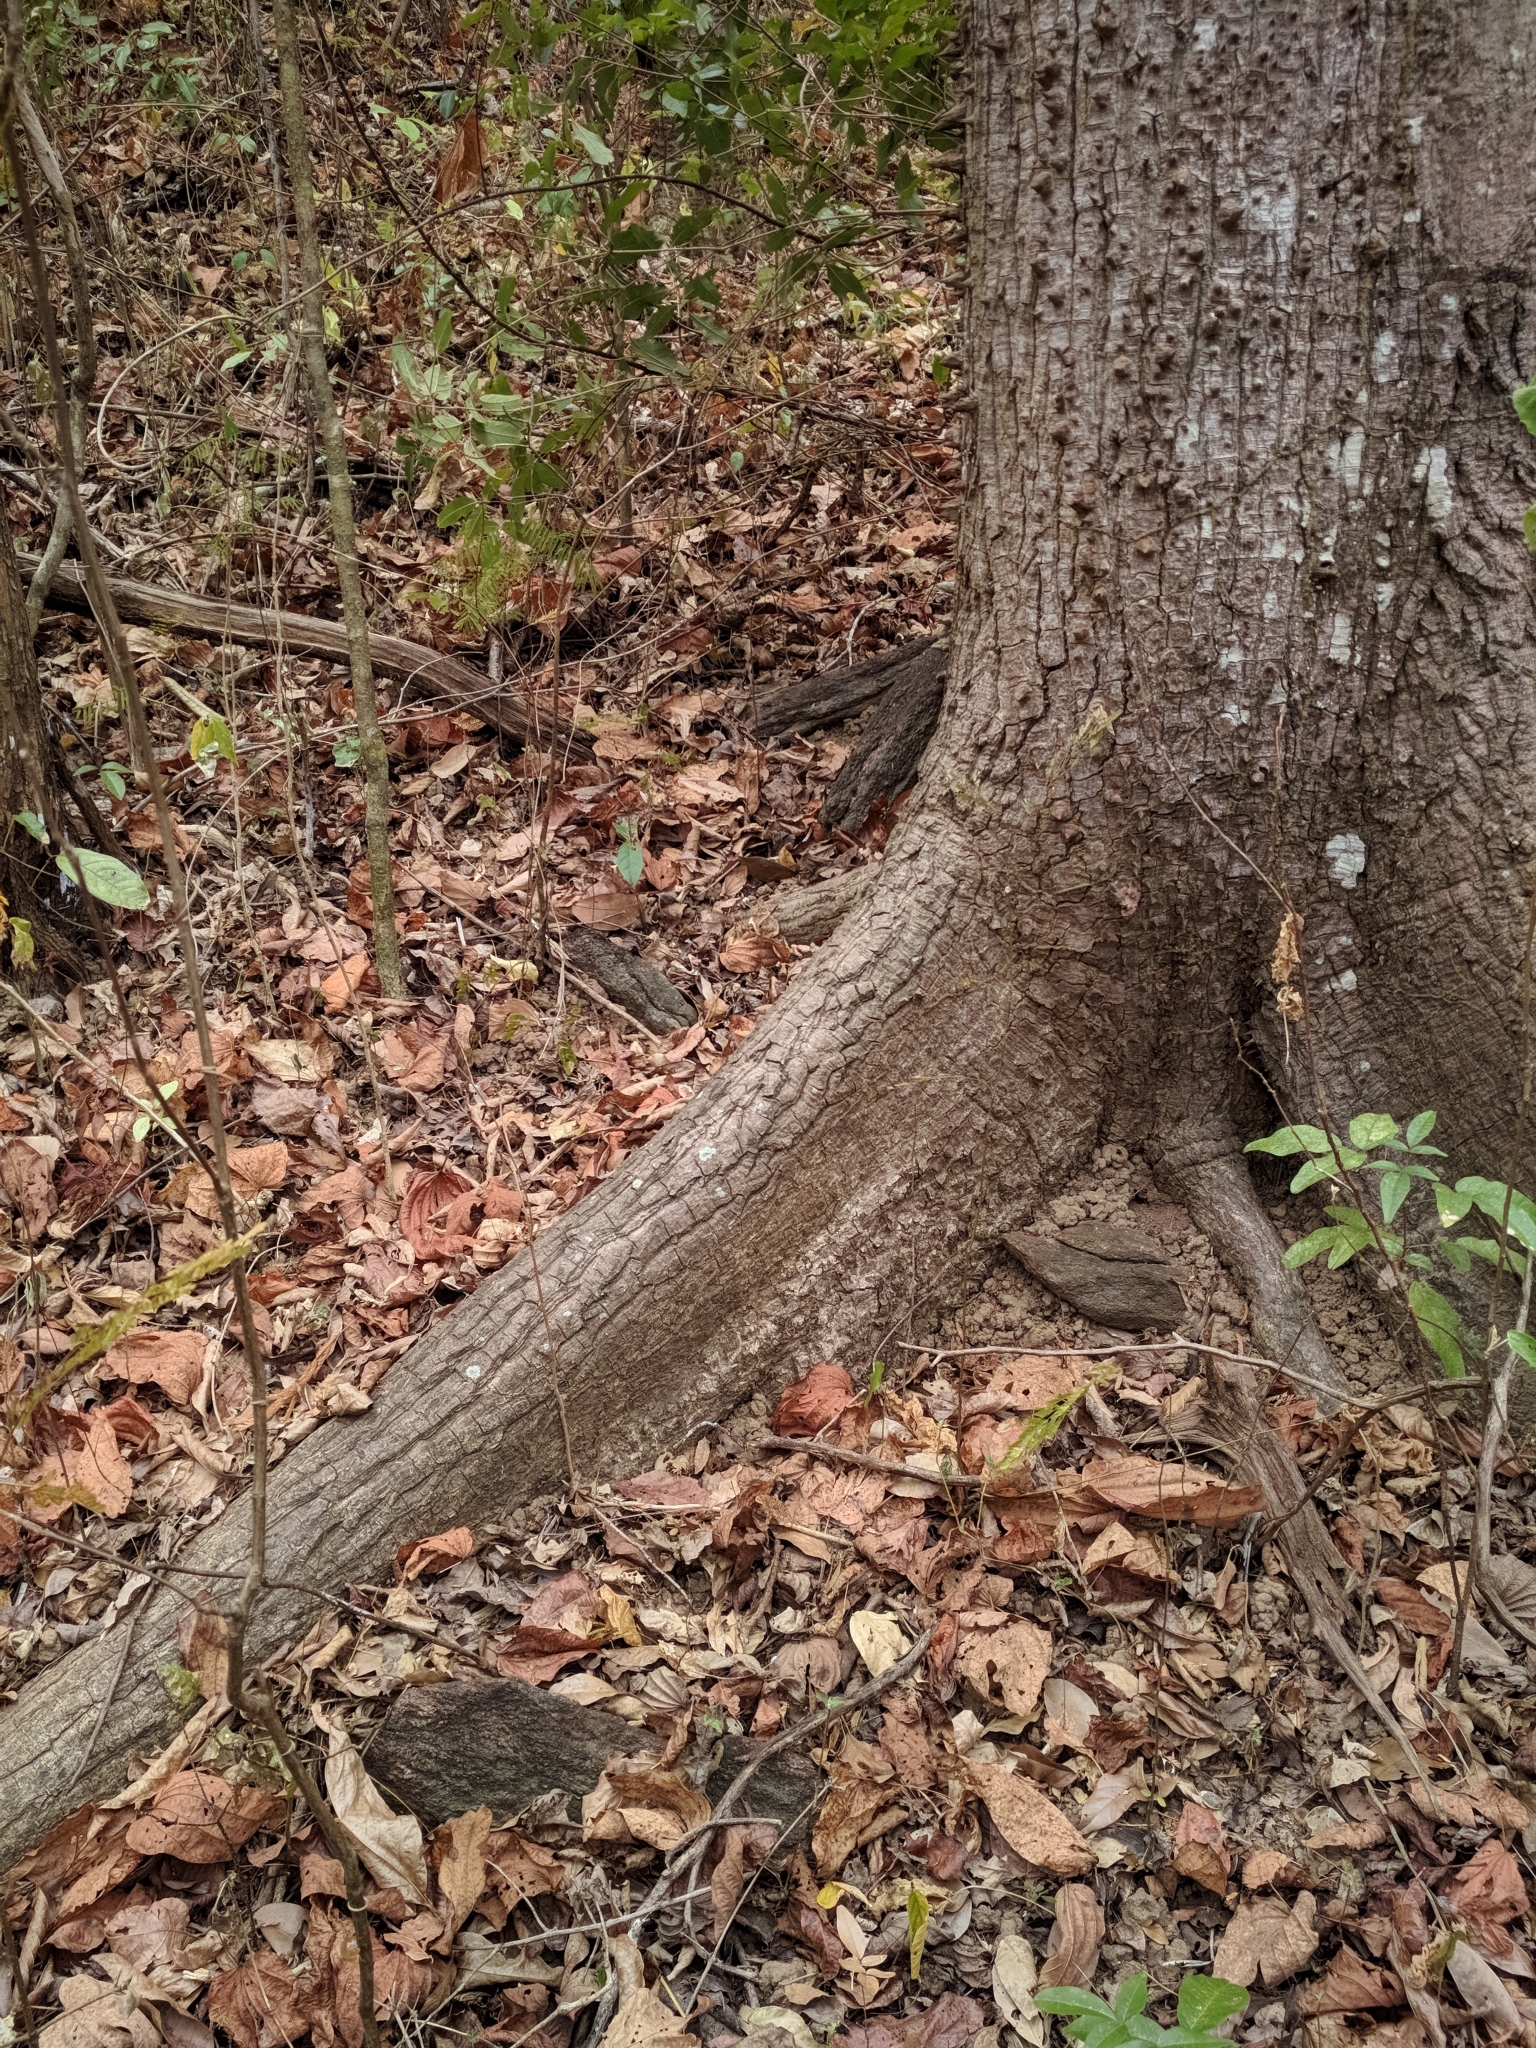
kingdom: Plantae
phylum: Tracheophyta
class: Magnoliopsida
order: Malvales
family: Malvaceae
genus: Ceiba
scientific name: Ceiba glaziovii
